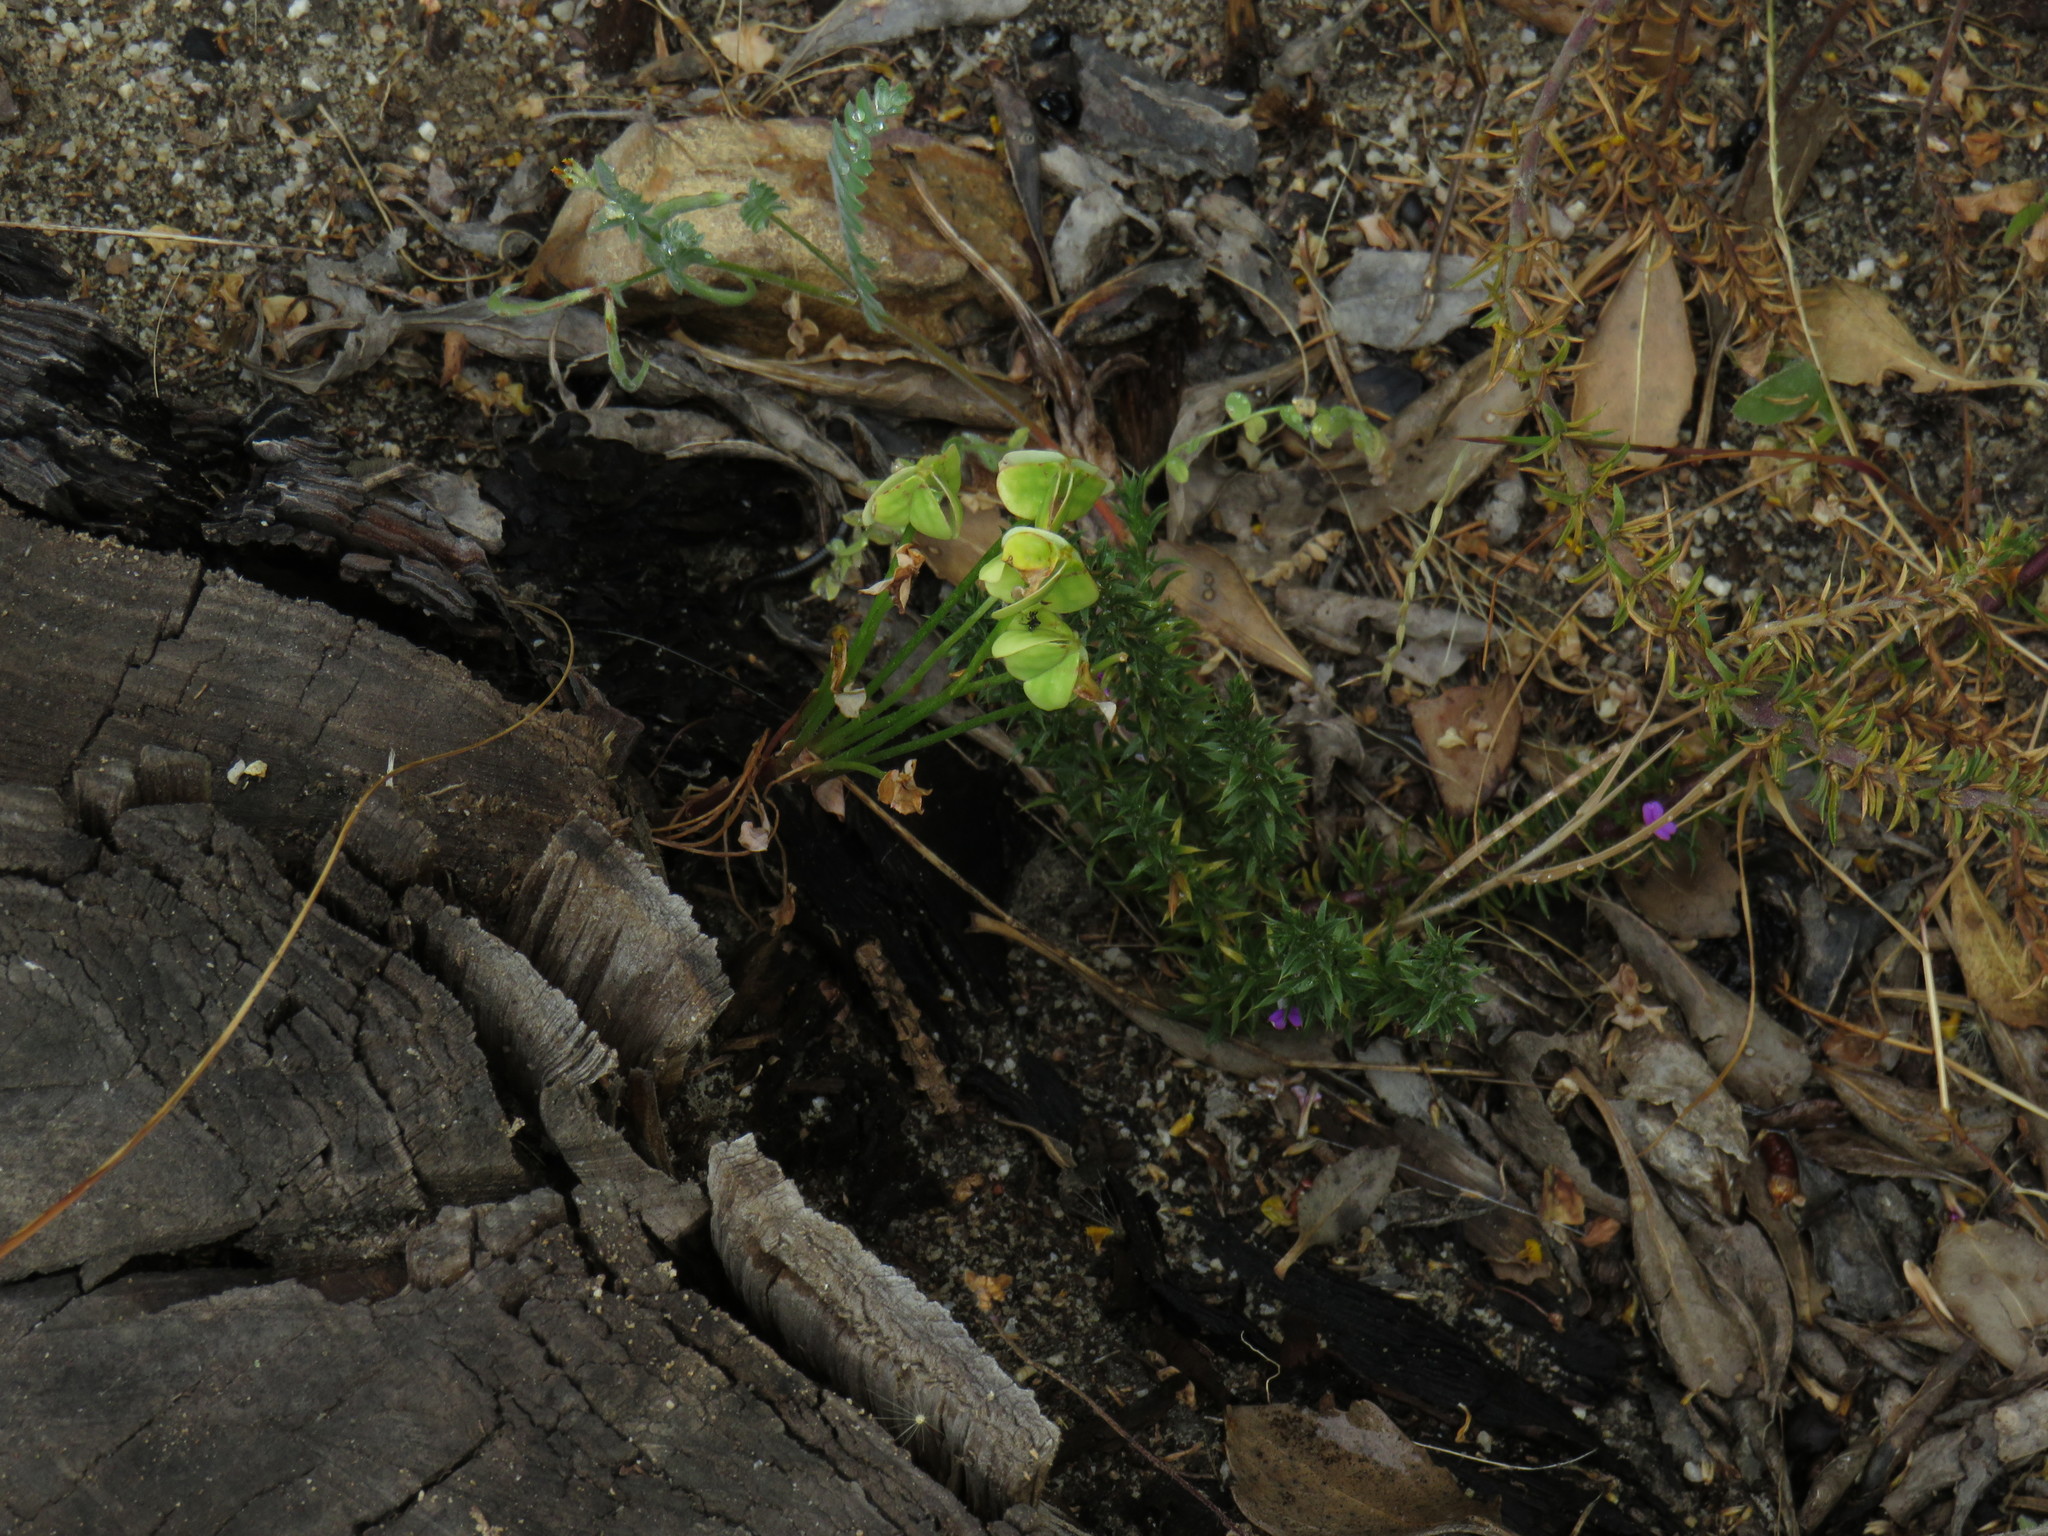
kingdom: Plantae
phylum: Tracheophyta
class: Magnoliopsida
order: Oxalidales
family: Oxalidaceae
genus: Oxalis
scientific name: Oxalis pes-caprae
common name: Bermuda-buttercup
